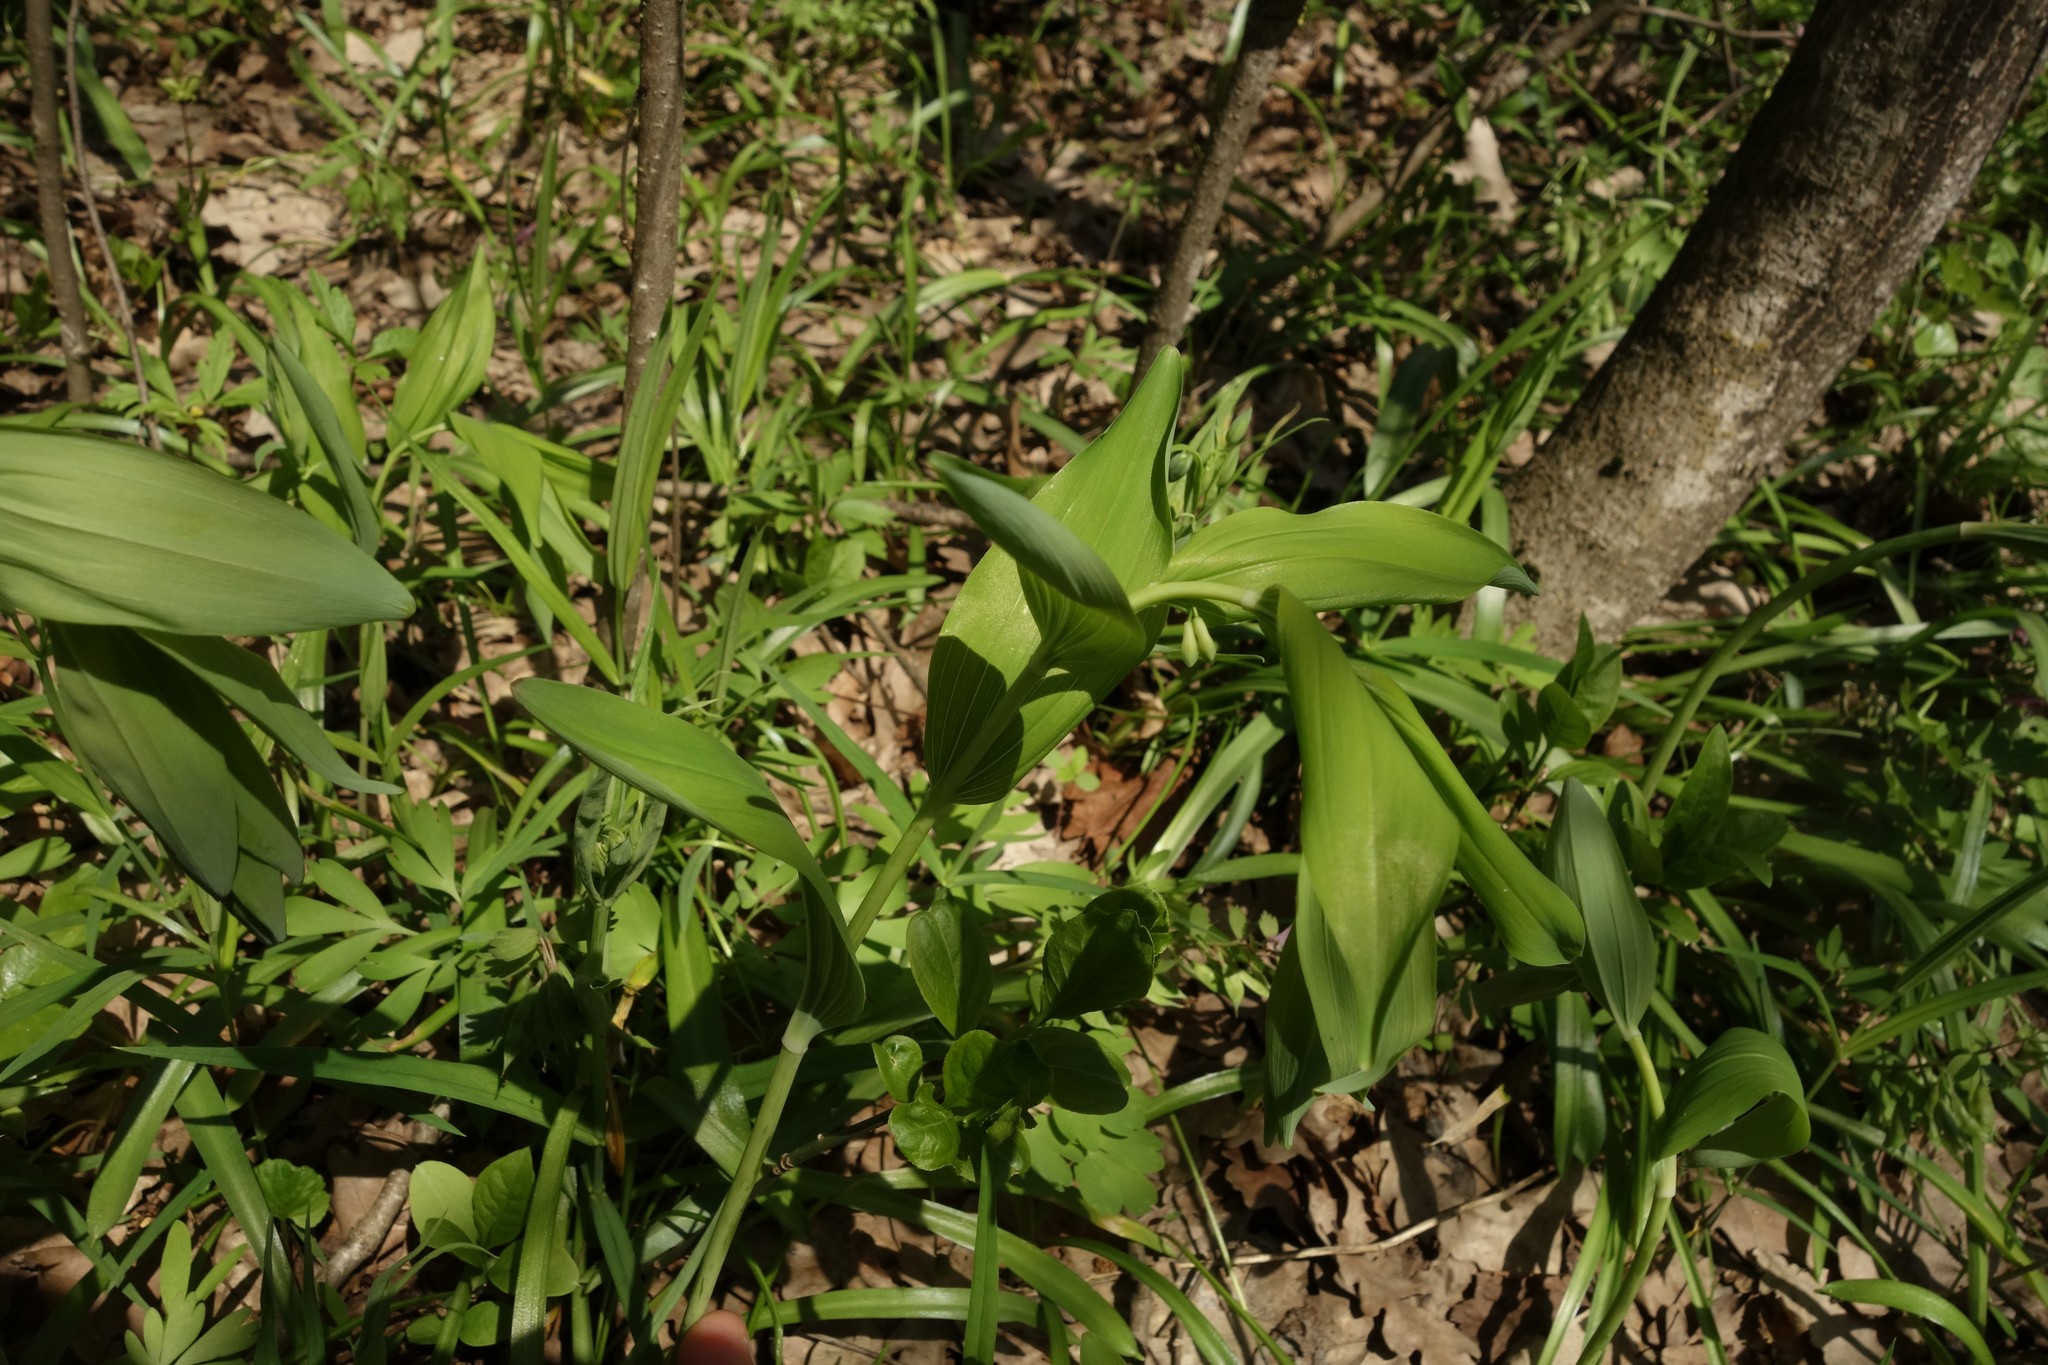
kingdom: Plantae
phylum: Tracheophyta
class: Liliopsida
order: Asparagales
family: Asparagaceae
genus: Polygonatum
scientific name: Polygonatum multiflorum
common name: Solomon's-seal
